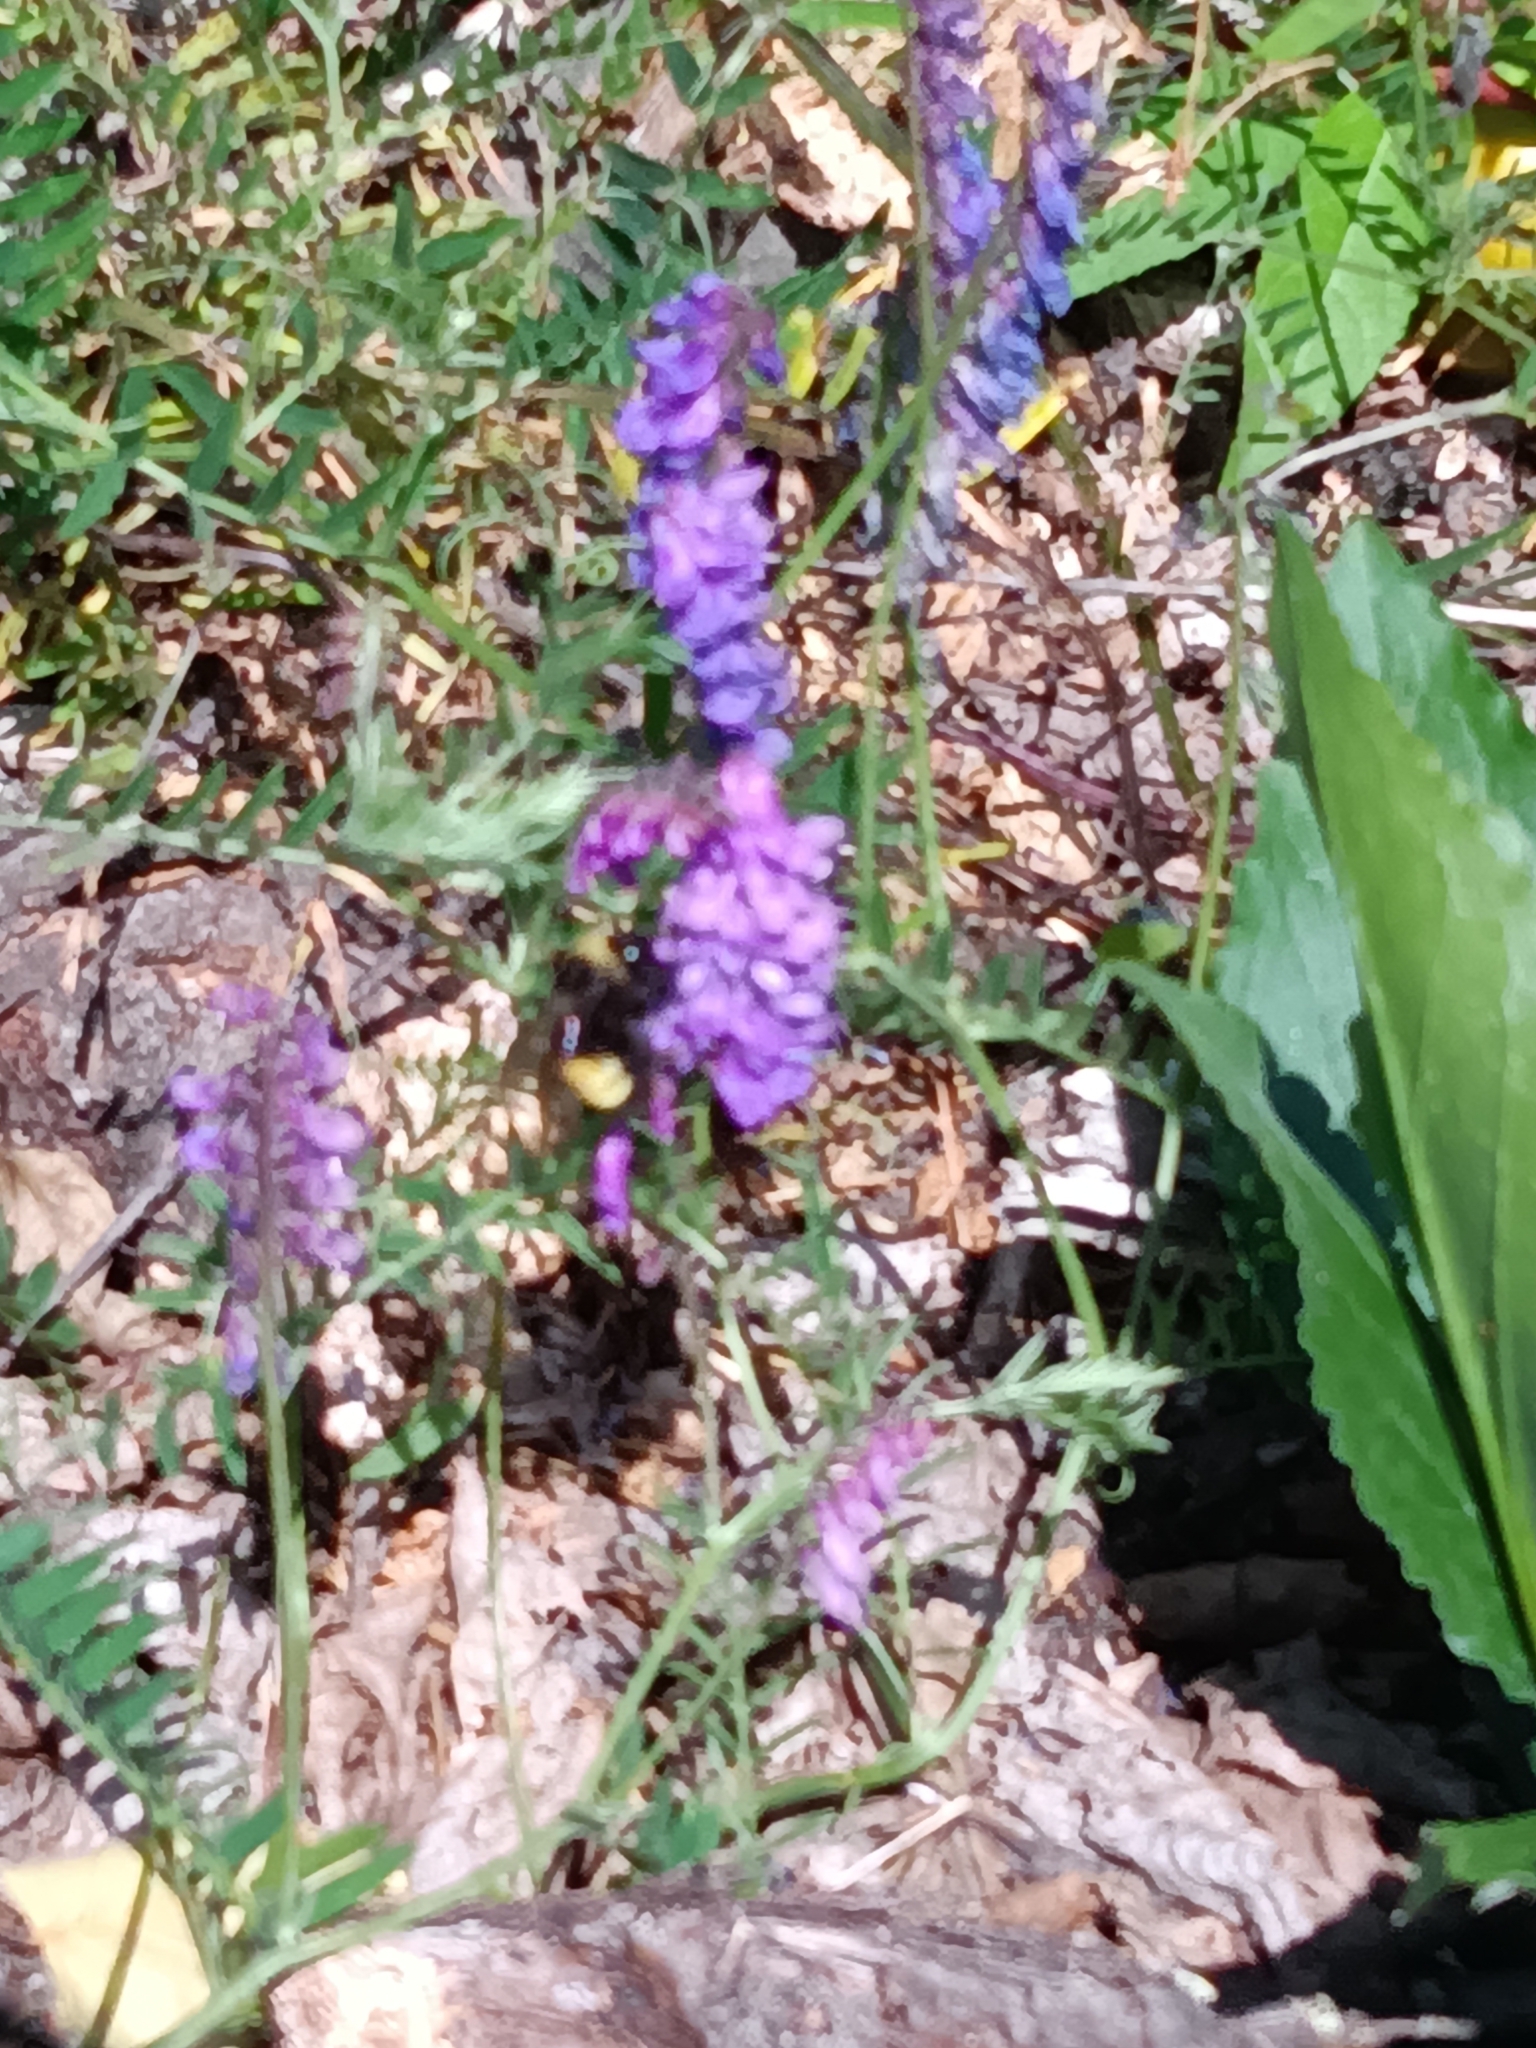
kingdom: Plantae
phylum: Tracheophyta
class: Magnoliopsida
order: Fabales
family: Fabaceae
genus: Vicia
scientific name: Vicia cracca
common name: Bird vetch
